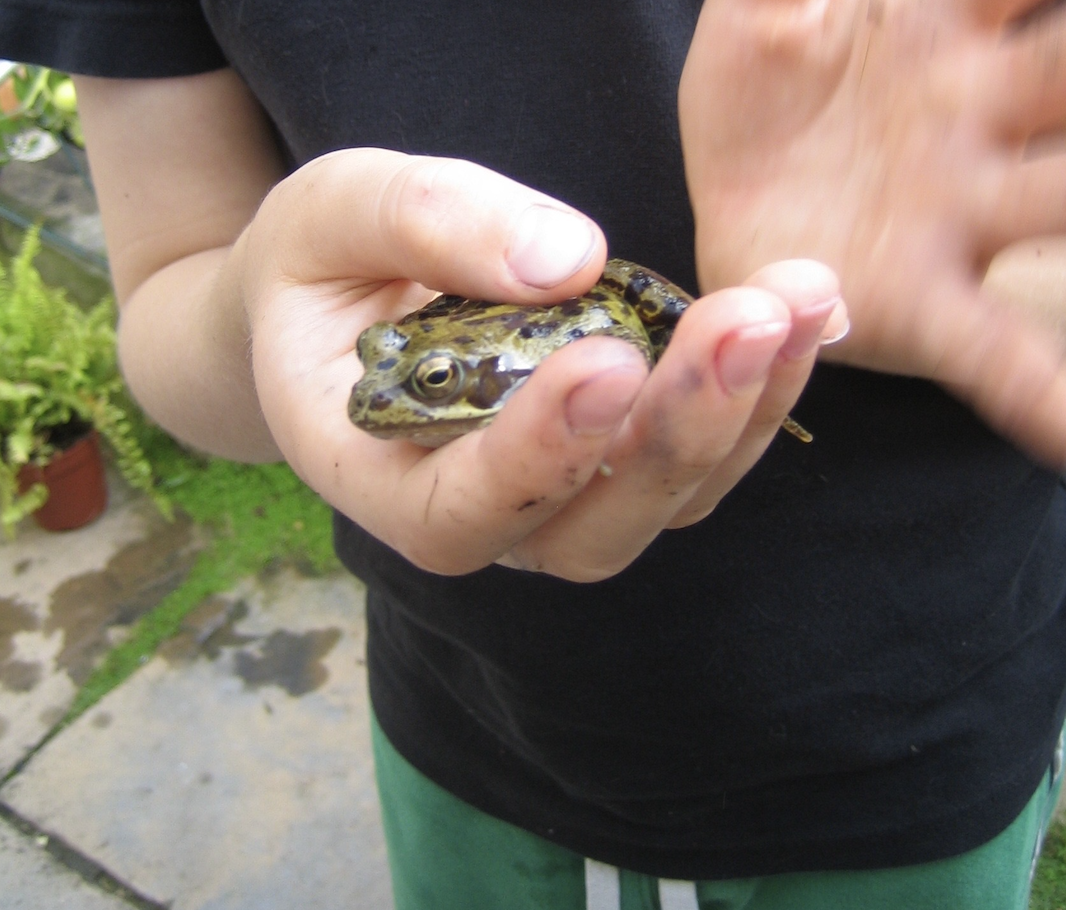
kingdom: Animalia
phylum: Chordata
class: Amphibia
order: Anura
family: Ranidae
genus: Rana
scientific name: Rana temporaria
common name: Common frog
